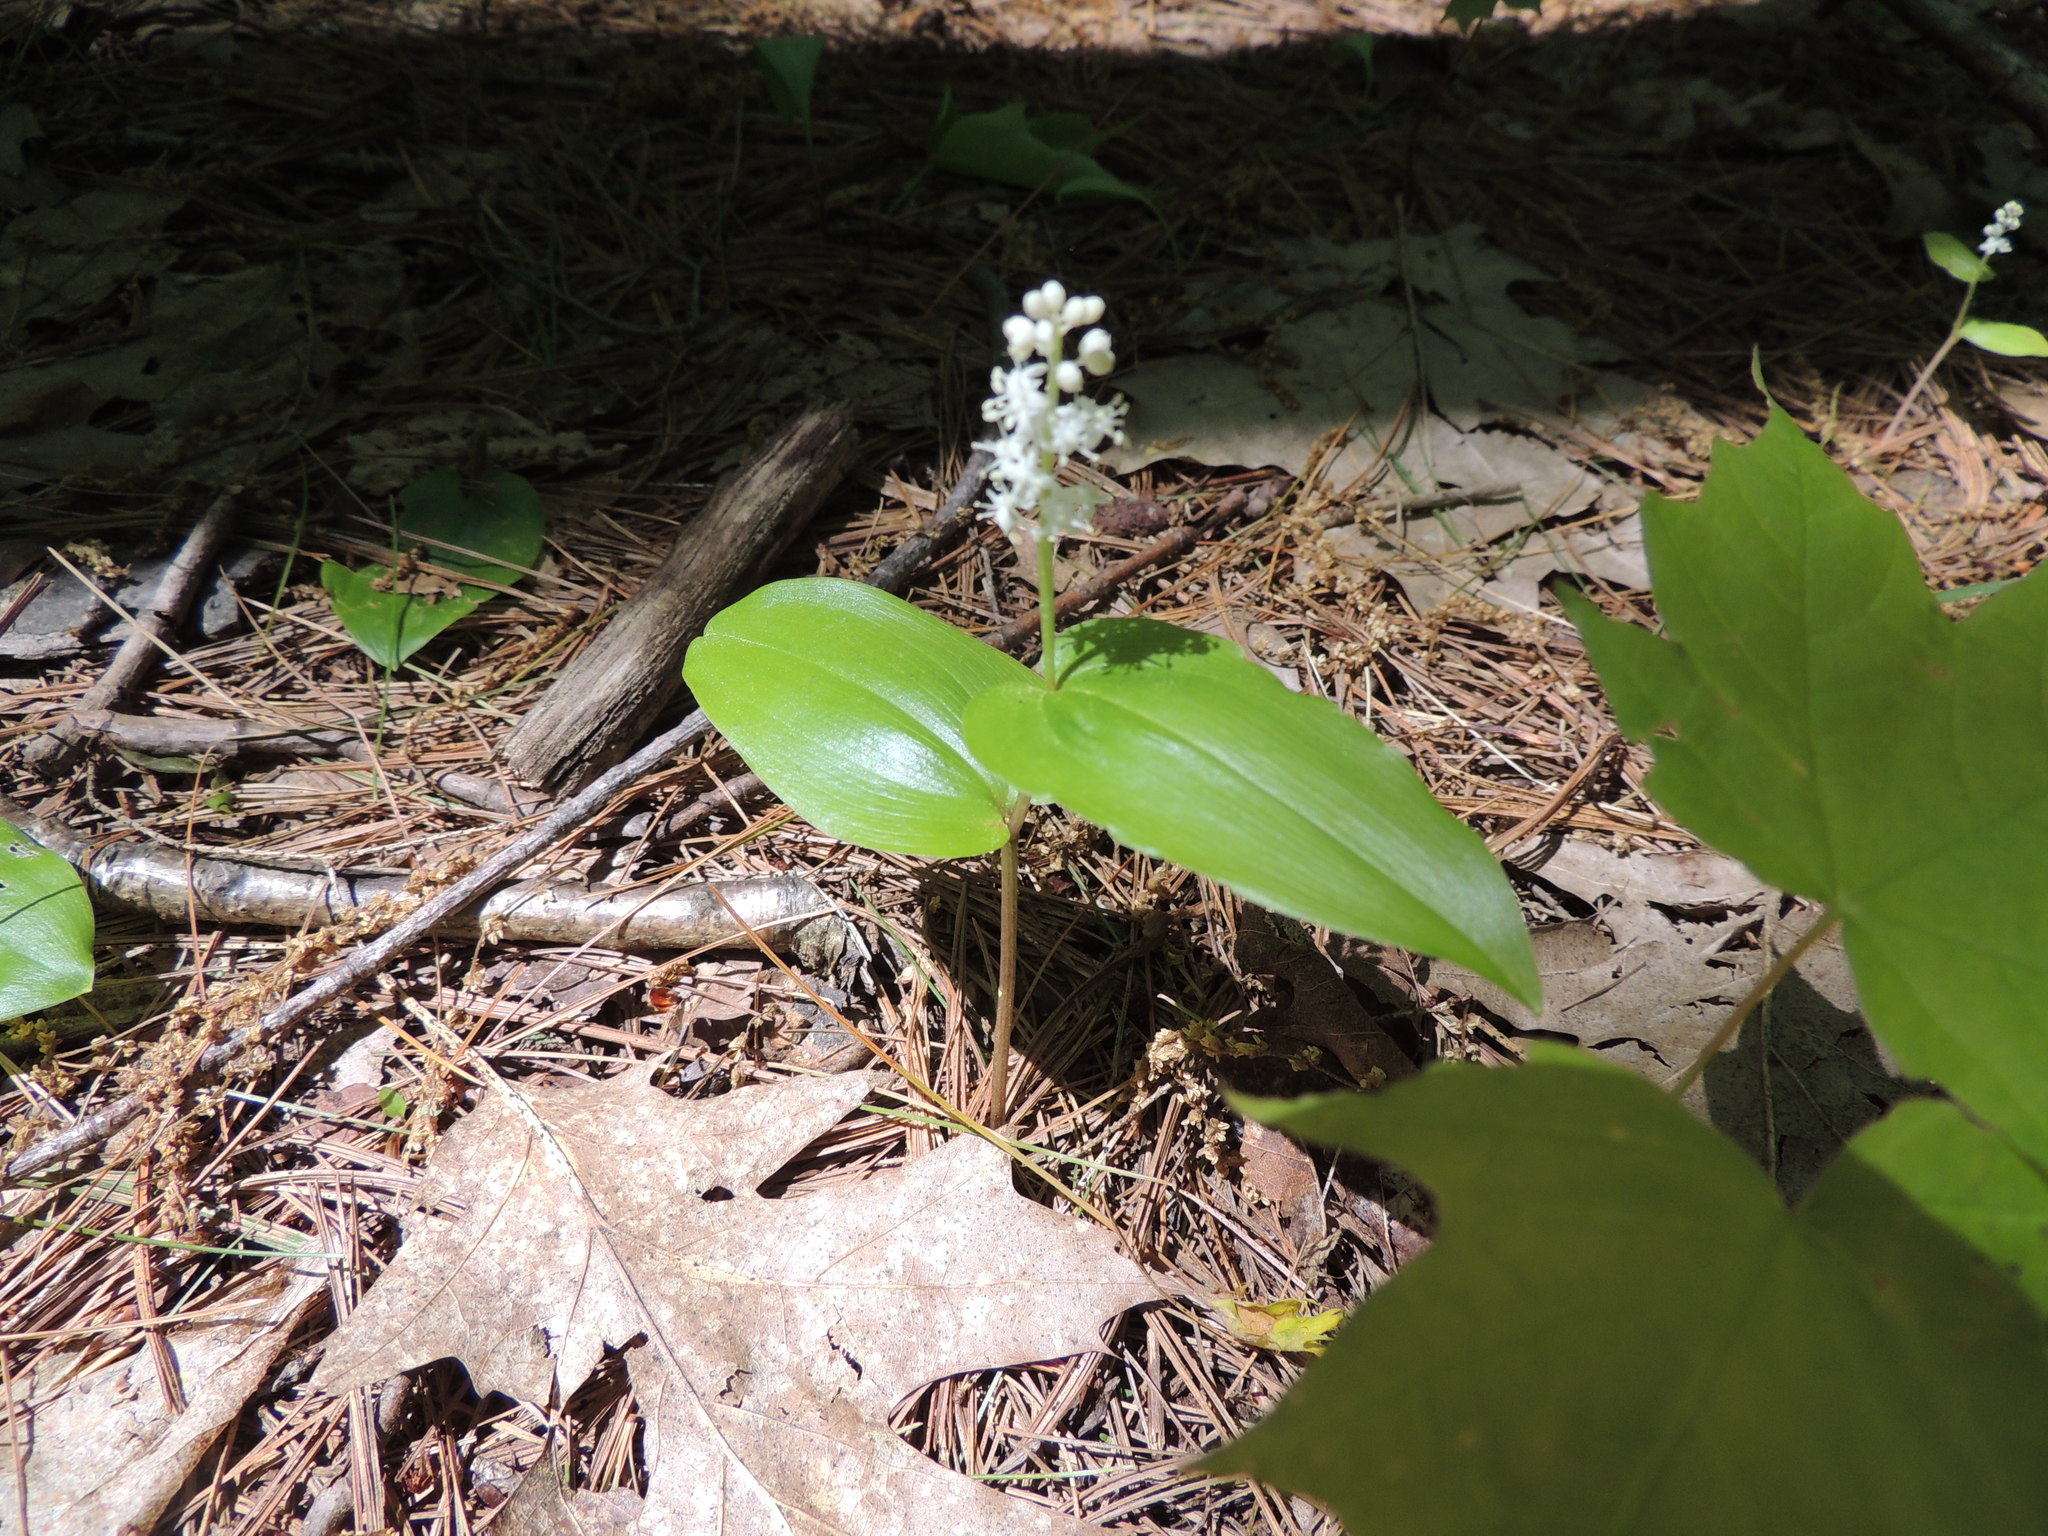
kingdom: Plantae
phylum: Tracheophyta
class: Liliopsida
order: Asparagales
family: Asparagaceae
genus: Maianthemum
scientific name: Maianthemum canadense
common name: False lily-of-the-valley
